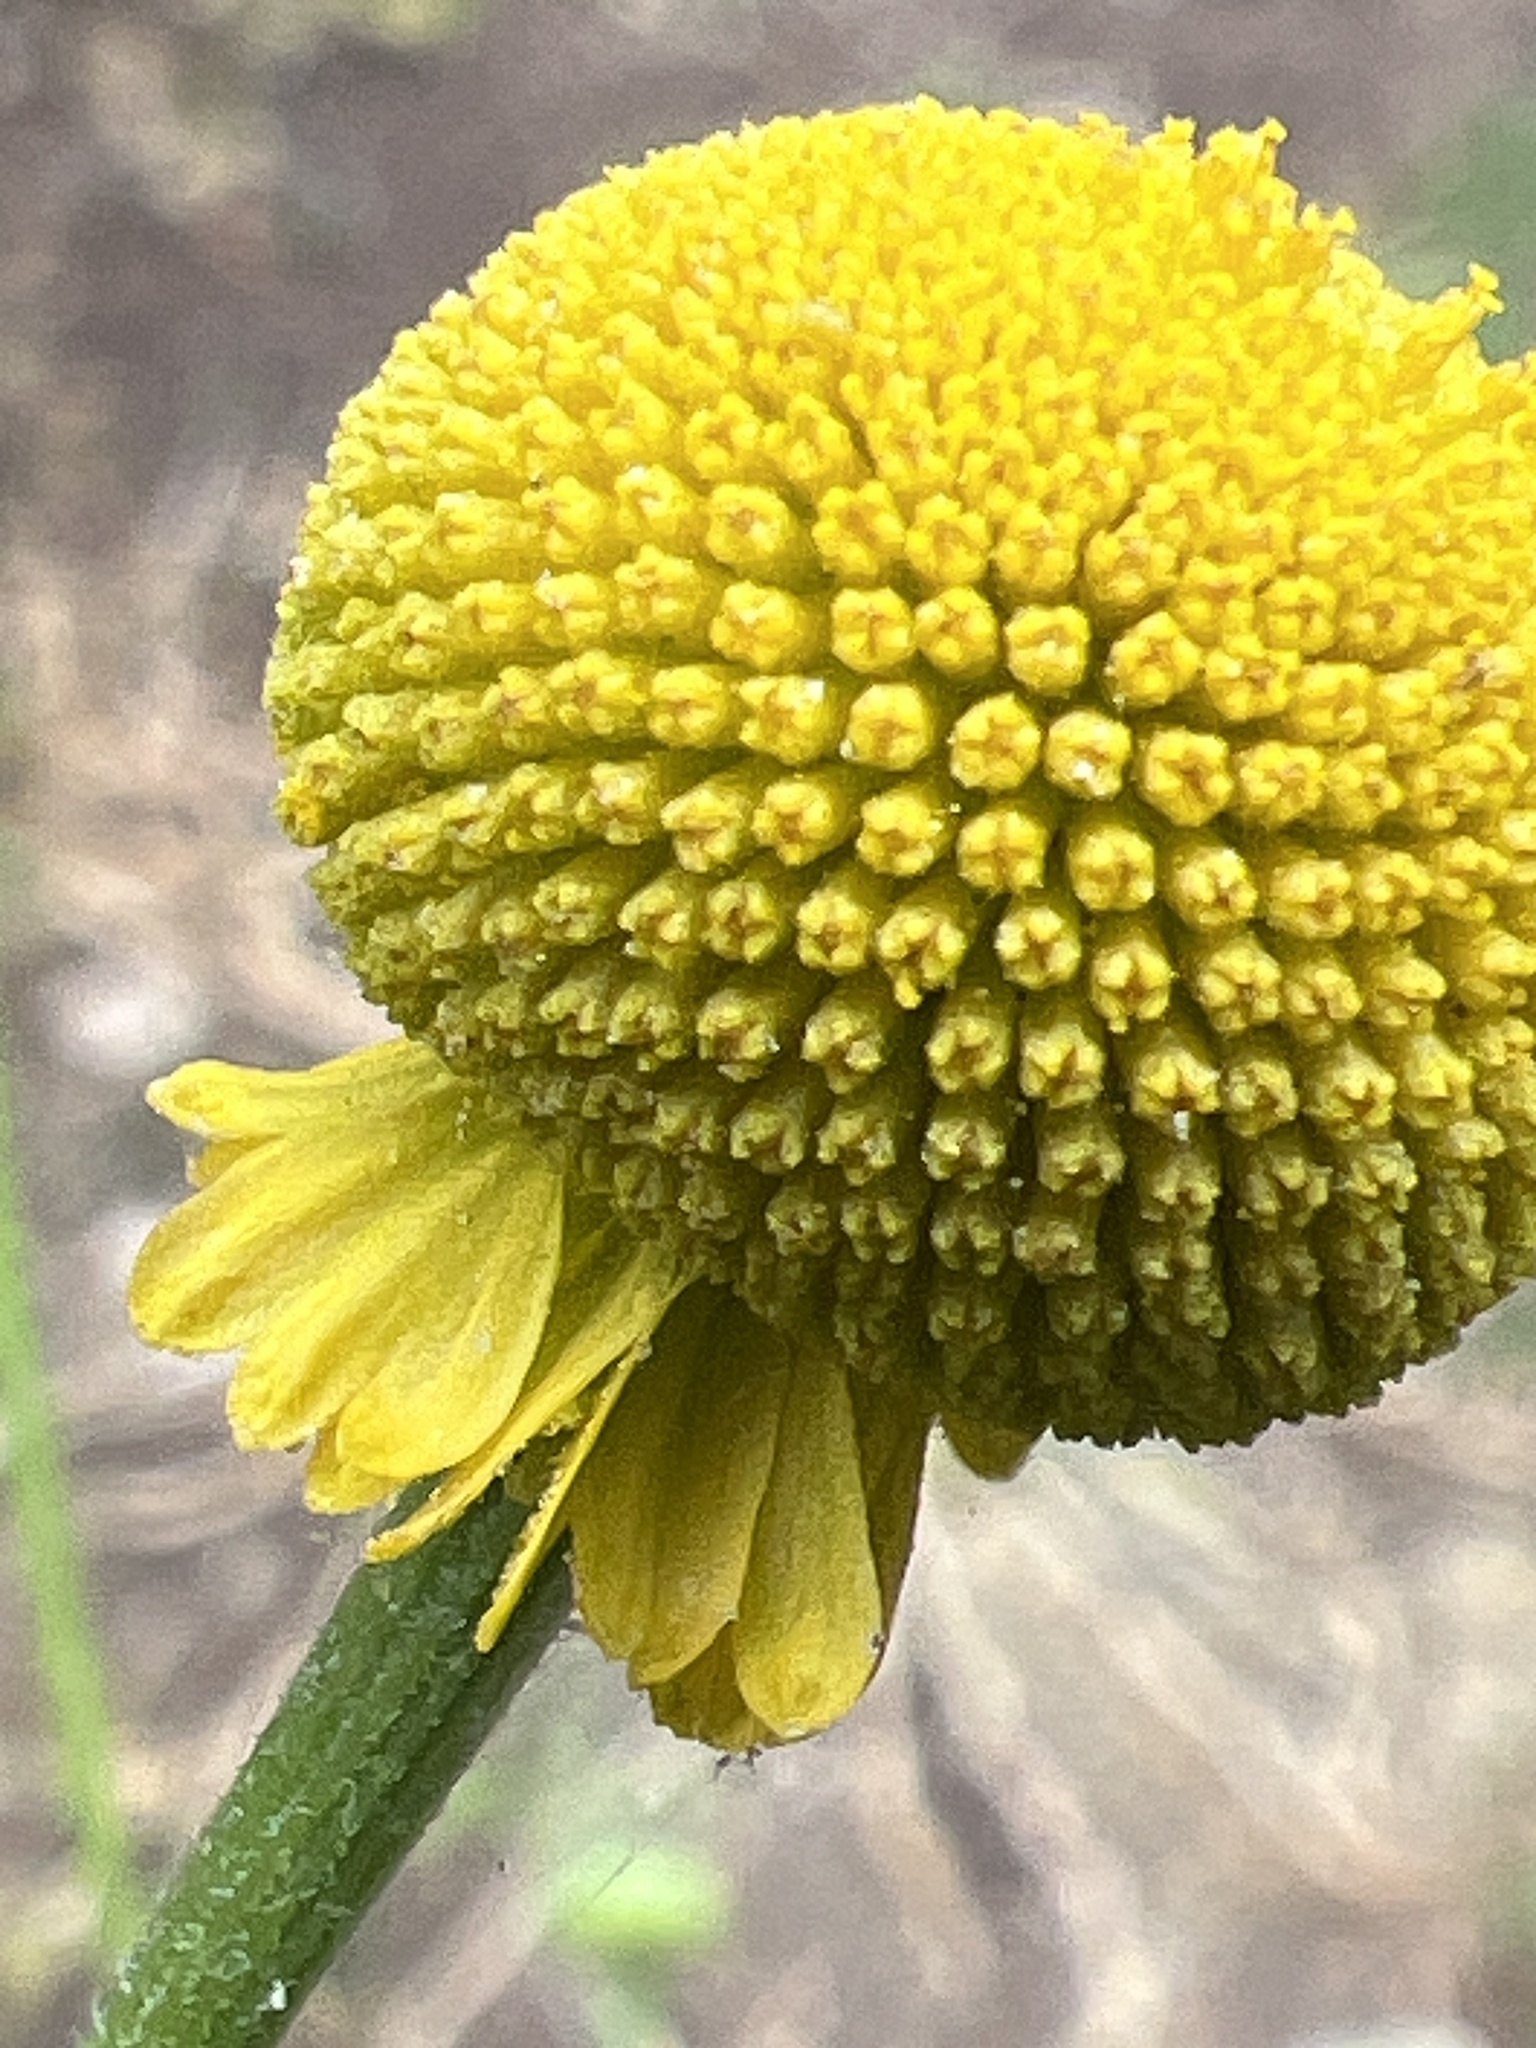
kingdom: Plantae
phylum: Tracheophyta
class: Magnoliopsida
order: Asterales
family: Asteraceae
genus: Helenium
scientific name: Helenium puberulum
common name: Sneezewort
